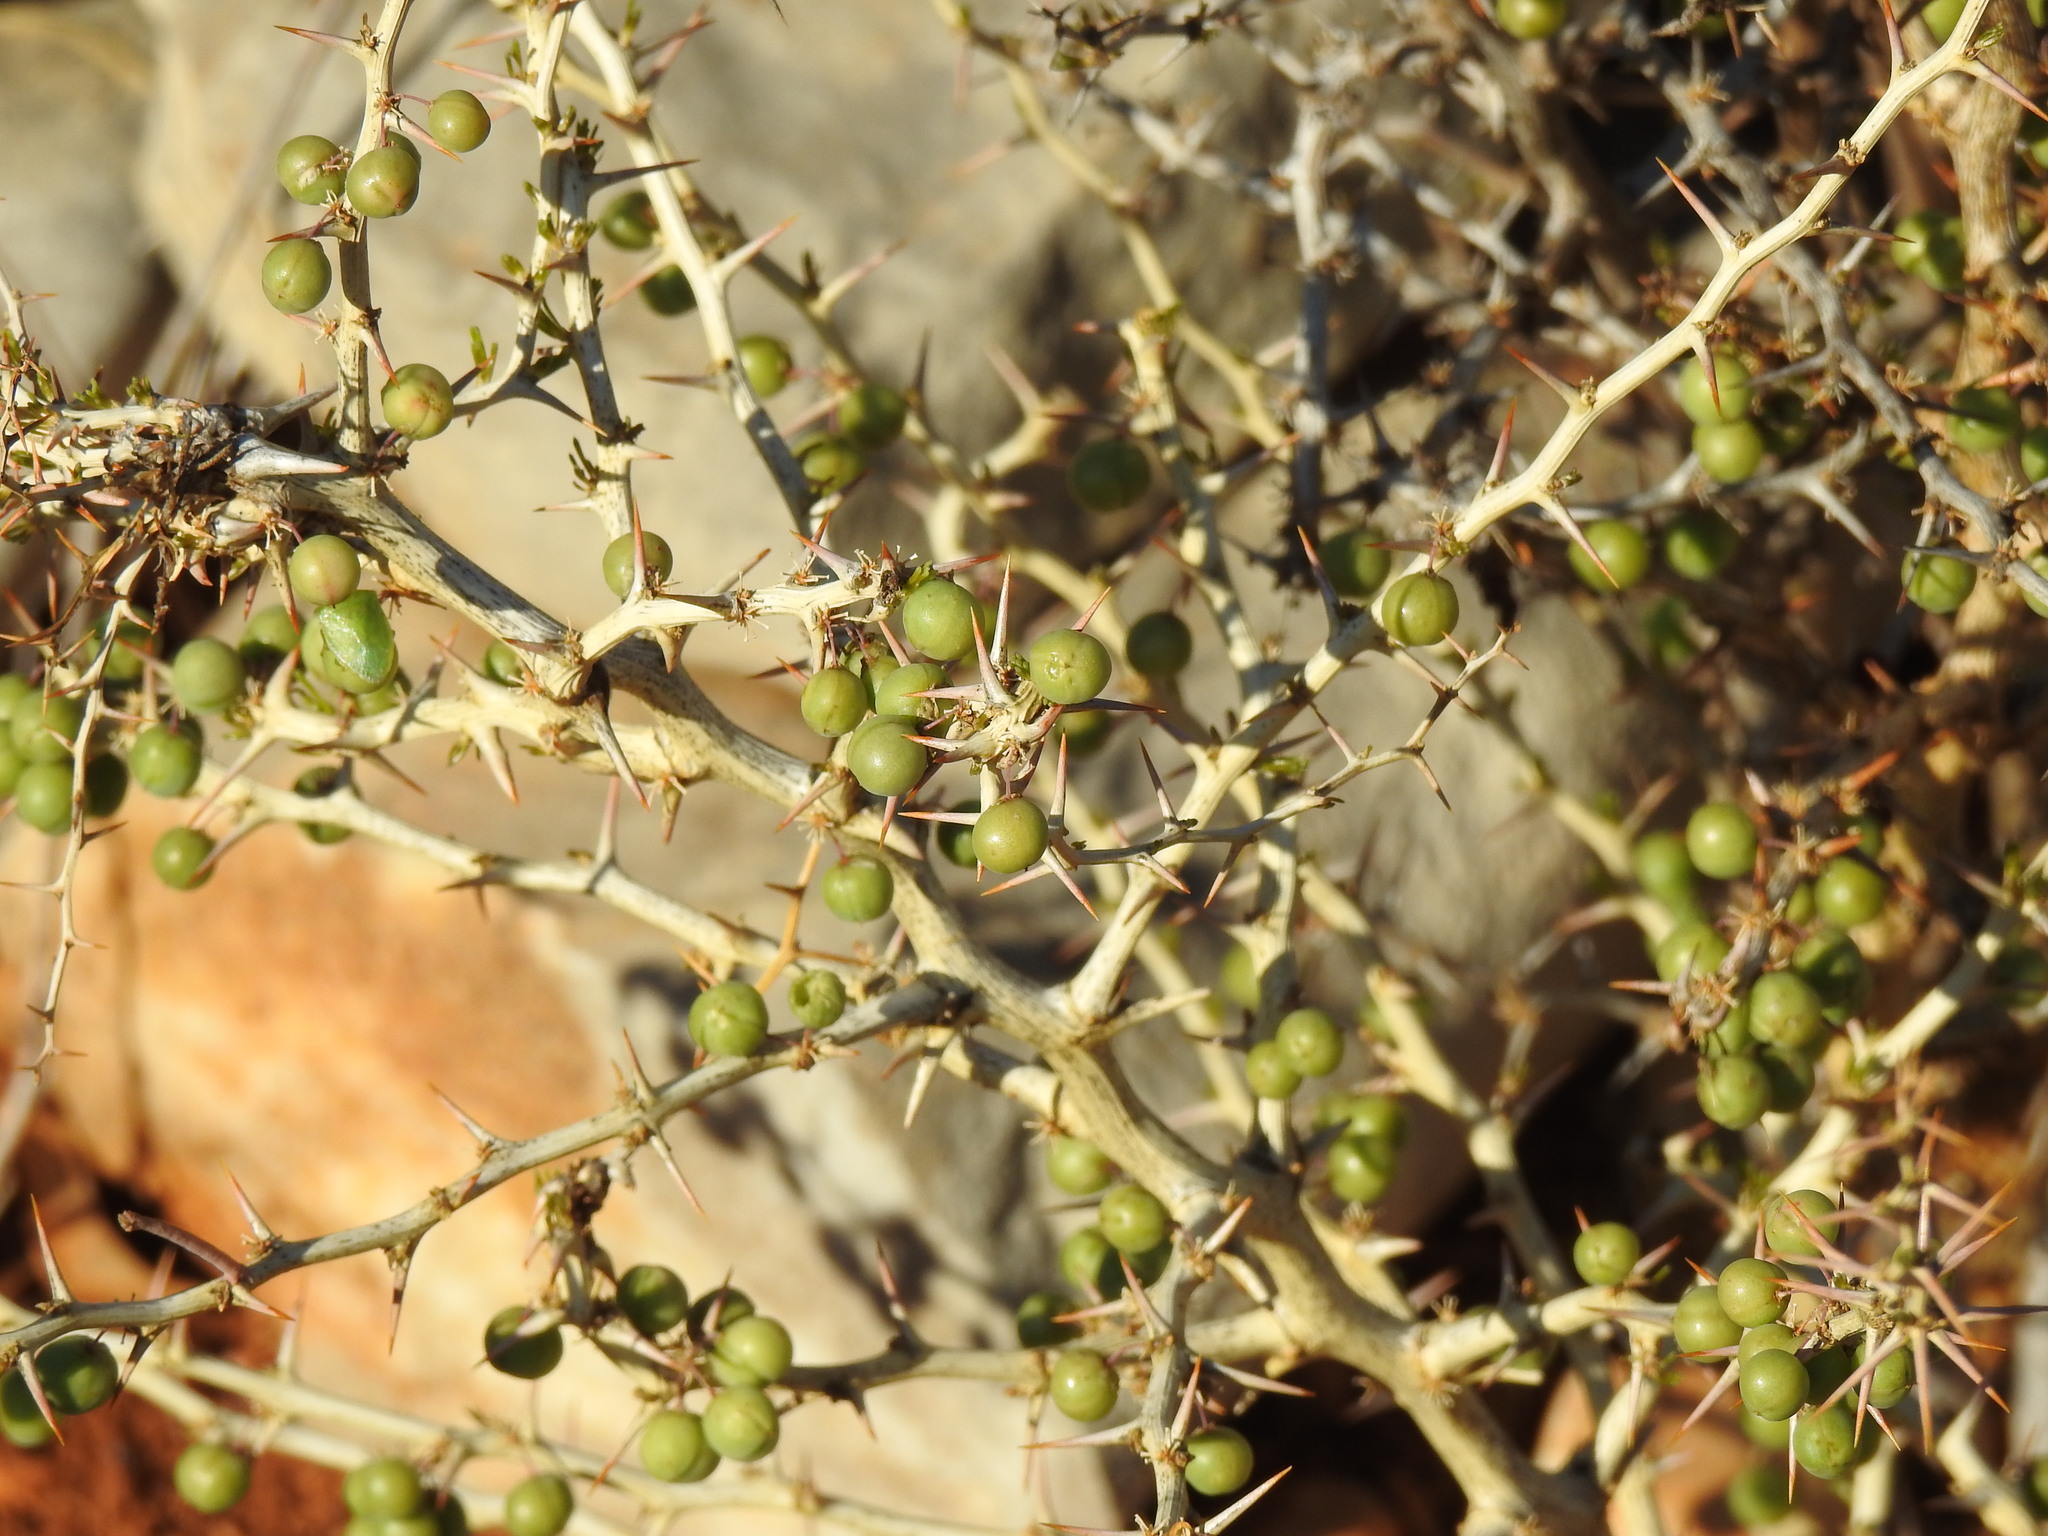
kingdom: Plantae
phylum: Tracheophyta
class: Liliopsida
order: Asparagales
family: Asparagaceae
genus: Asparagus
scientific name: Asparagus albus
